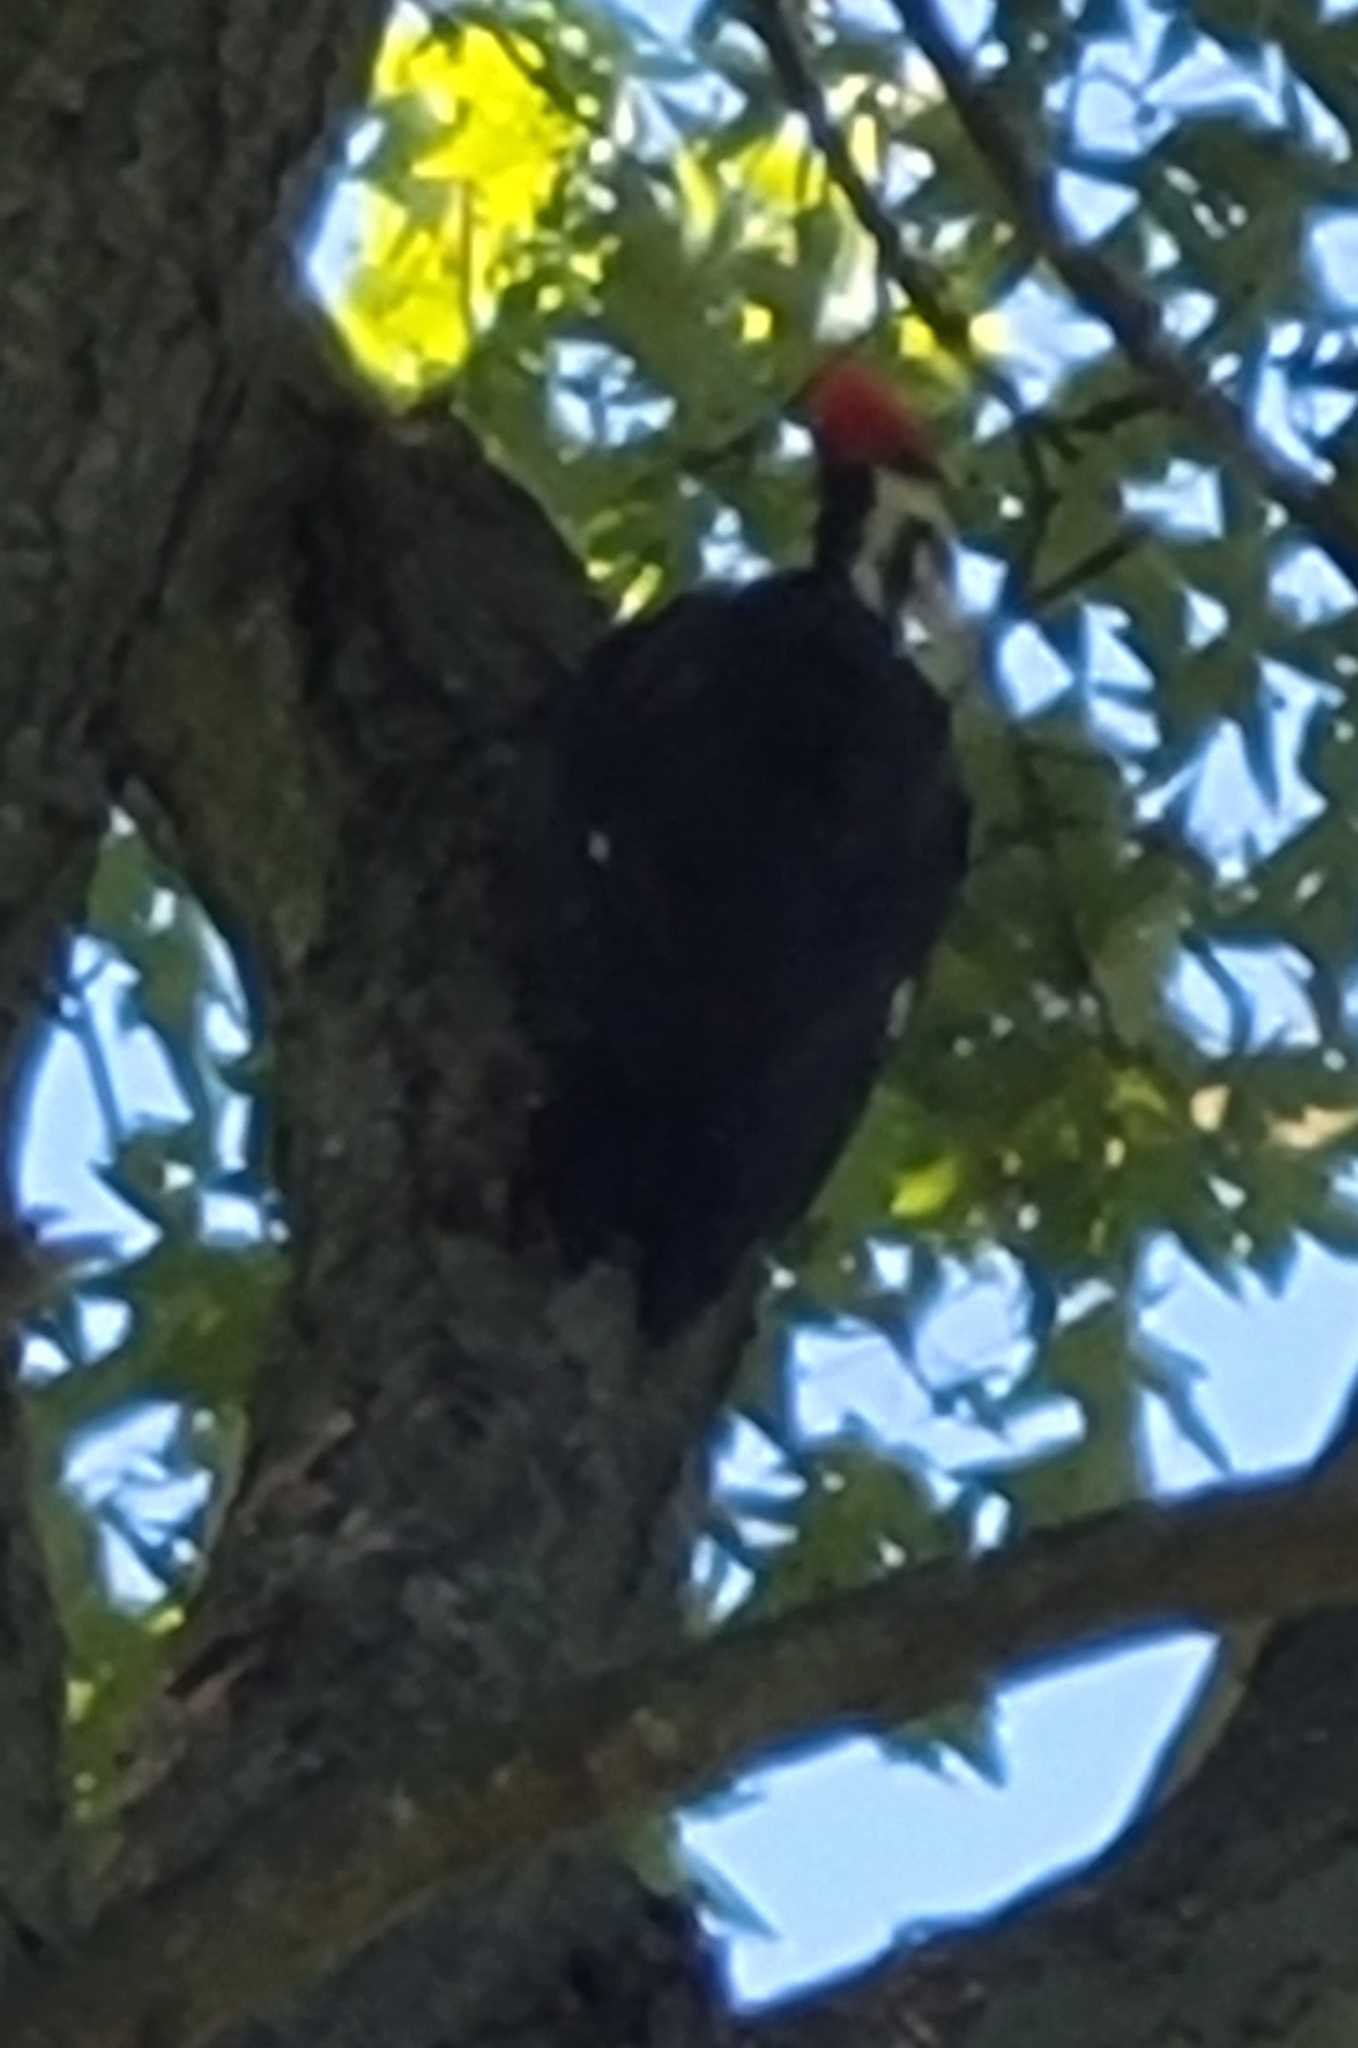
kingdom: Animalia
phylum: Chordata
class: Aves
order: Piciformes
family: Picidae
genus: Dryocopus
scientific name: Dryocopus pileatus
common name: Pileated woodpecker
